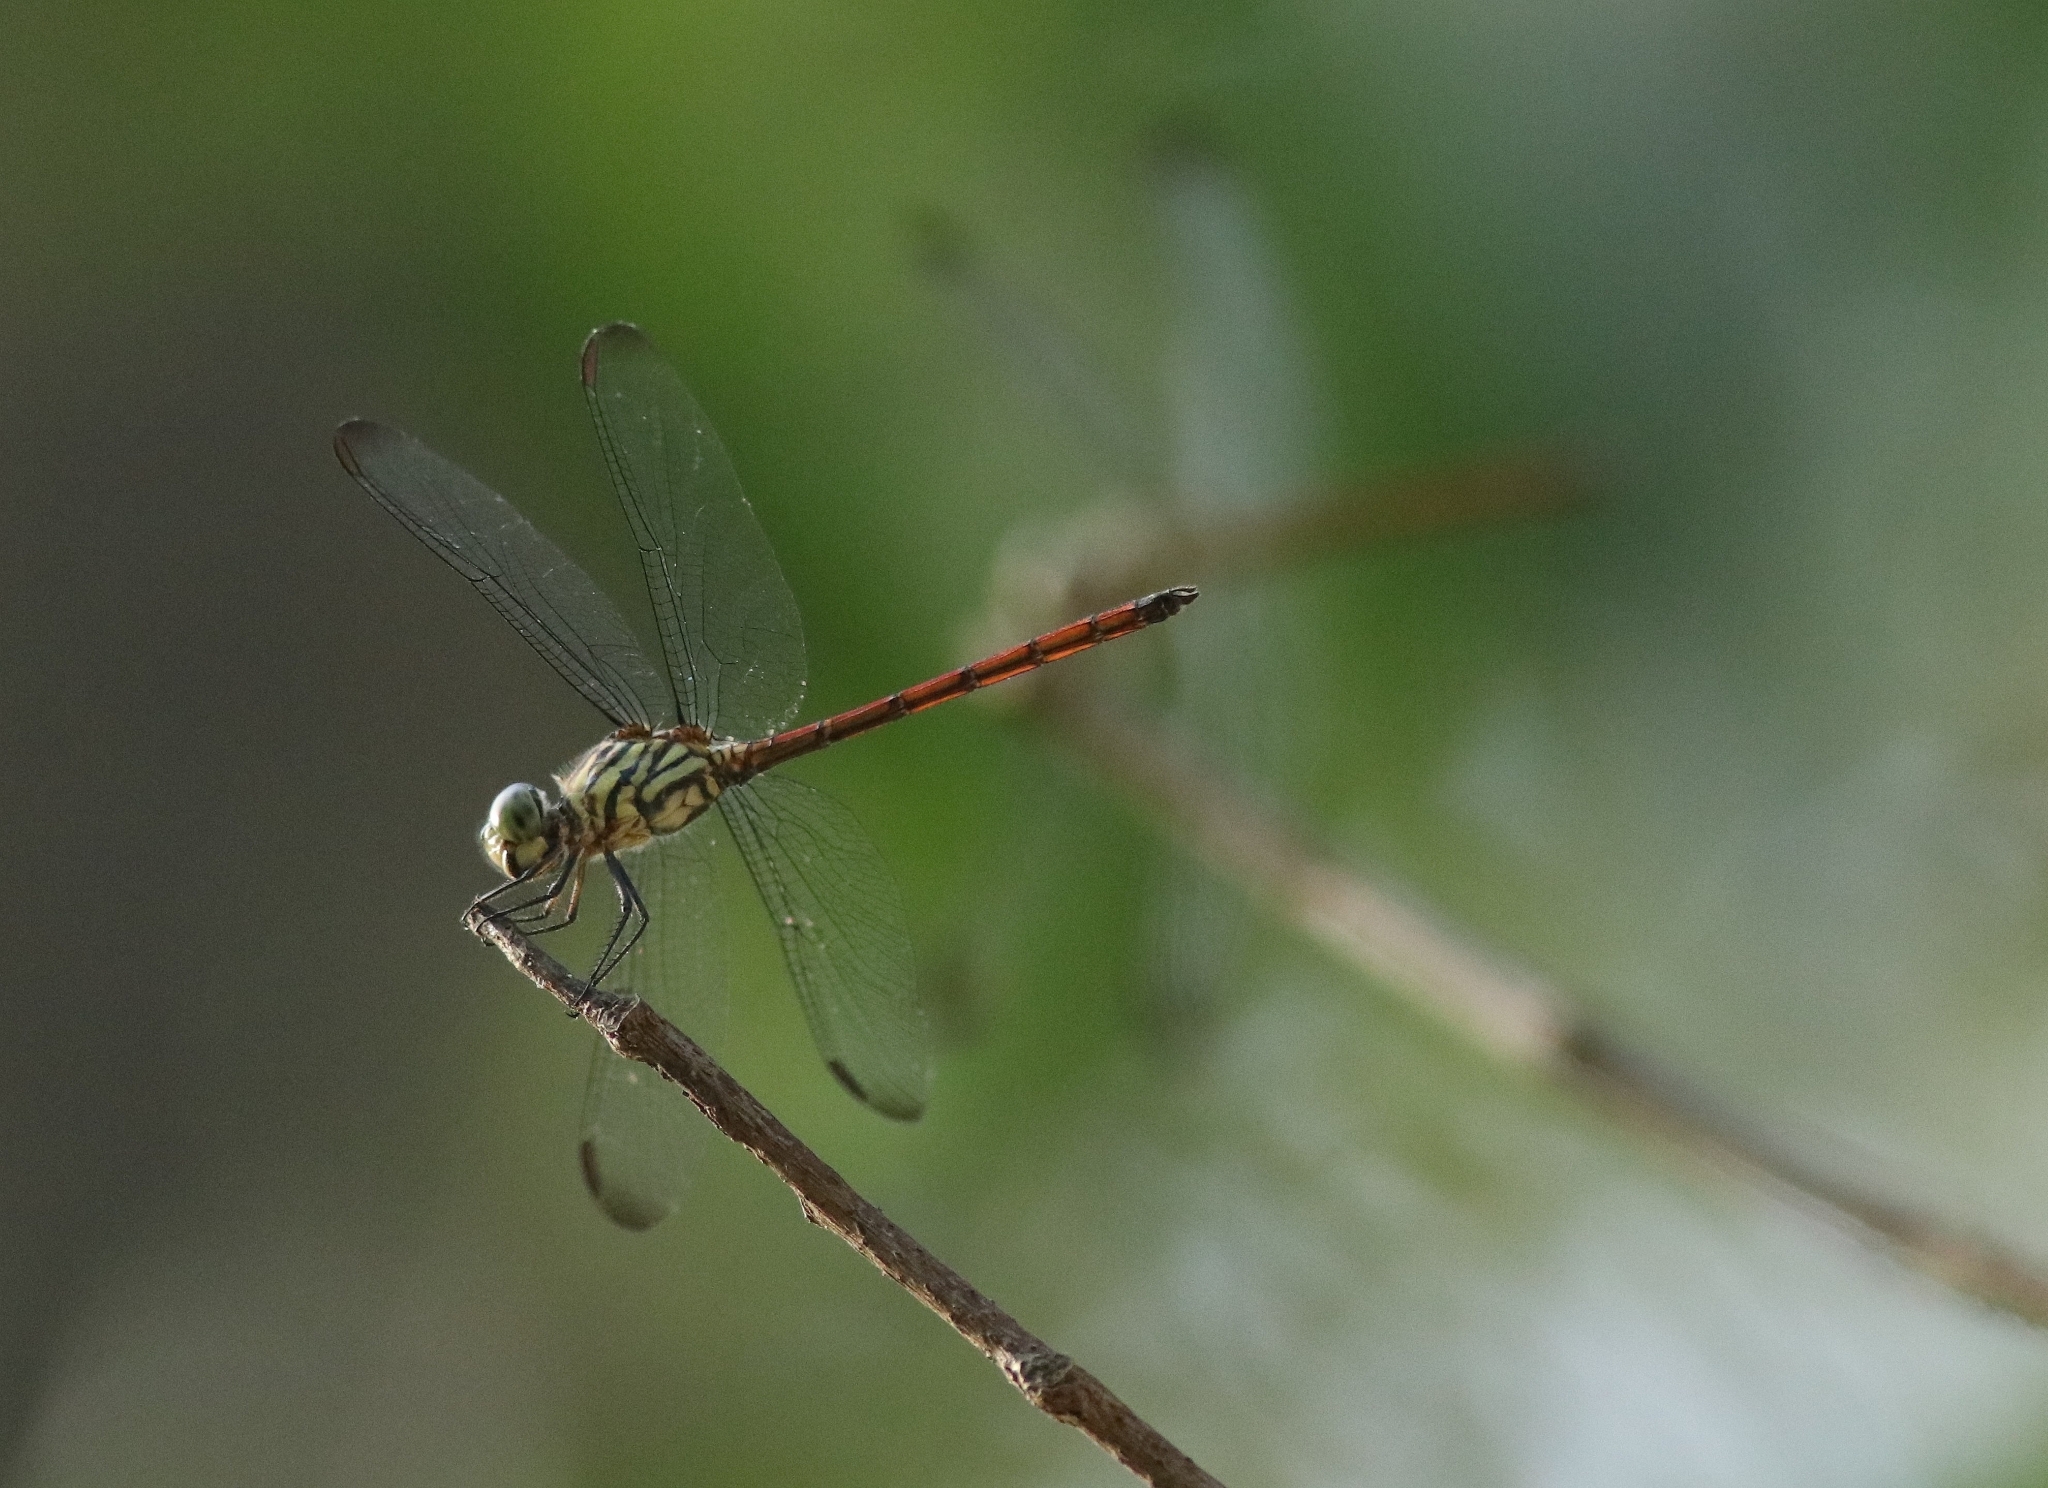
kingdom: Animalia
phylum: Arthropoda
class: Insecta
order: Odonata
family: Libellulidae
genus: Lathrecista
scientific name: Lathrecista asiatica
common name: Scarlet grenadier
